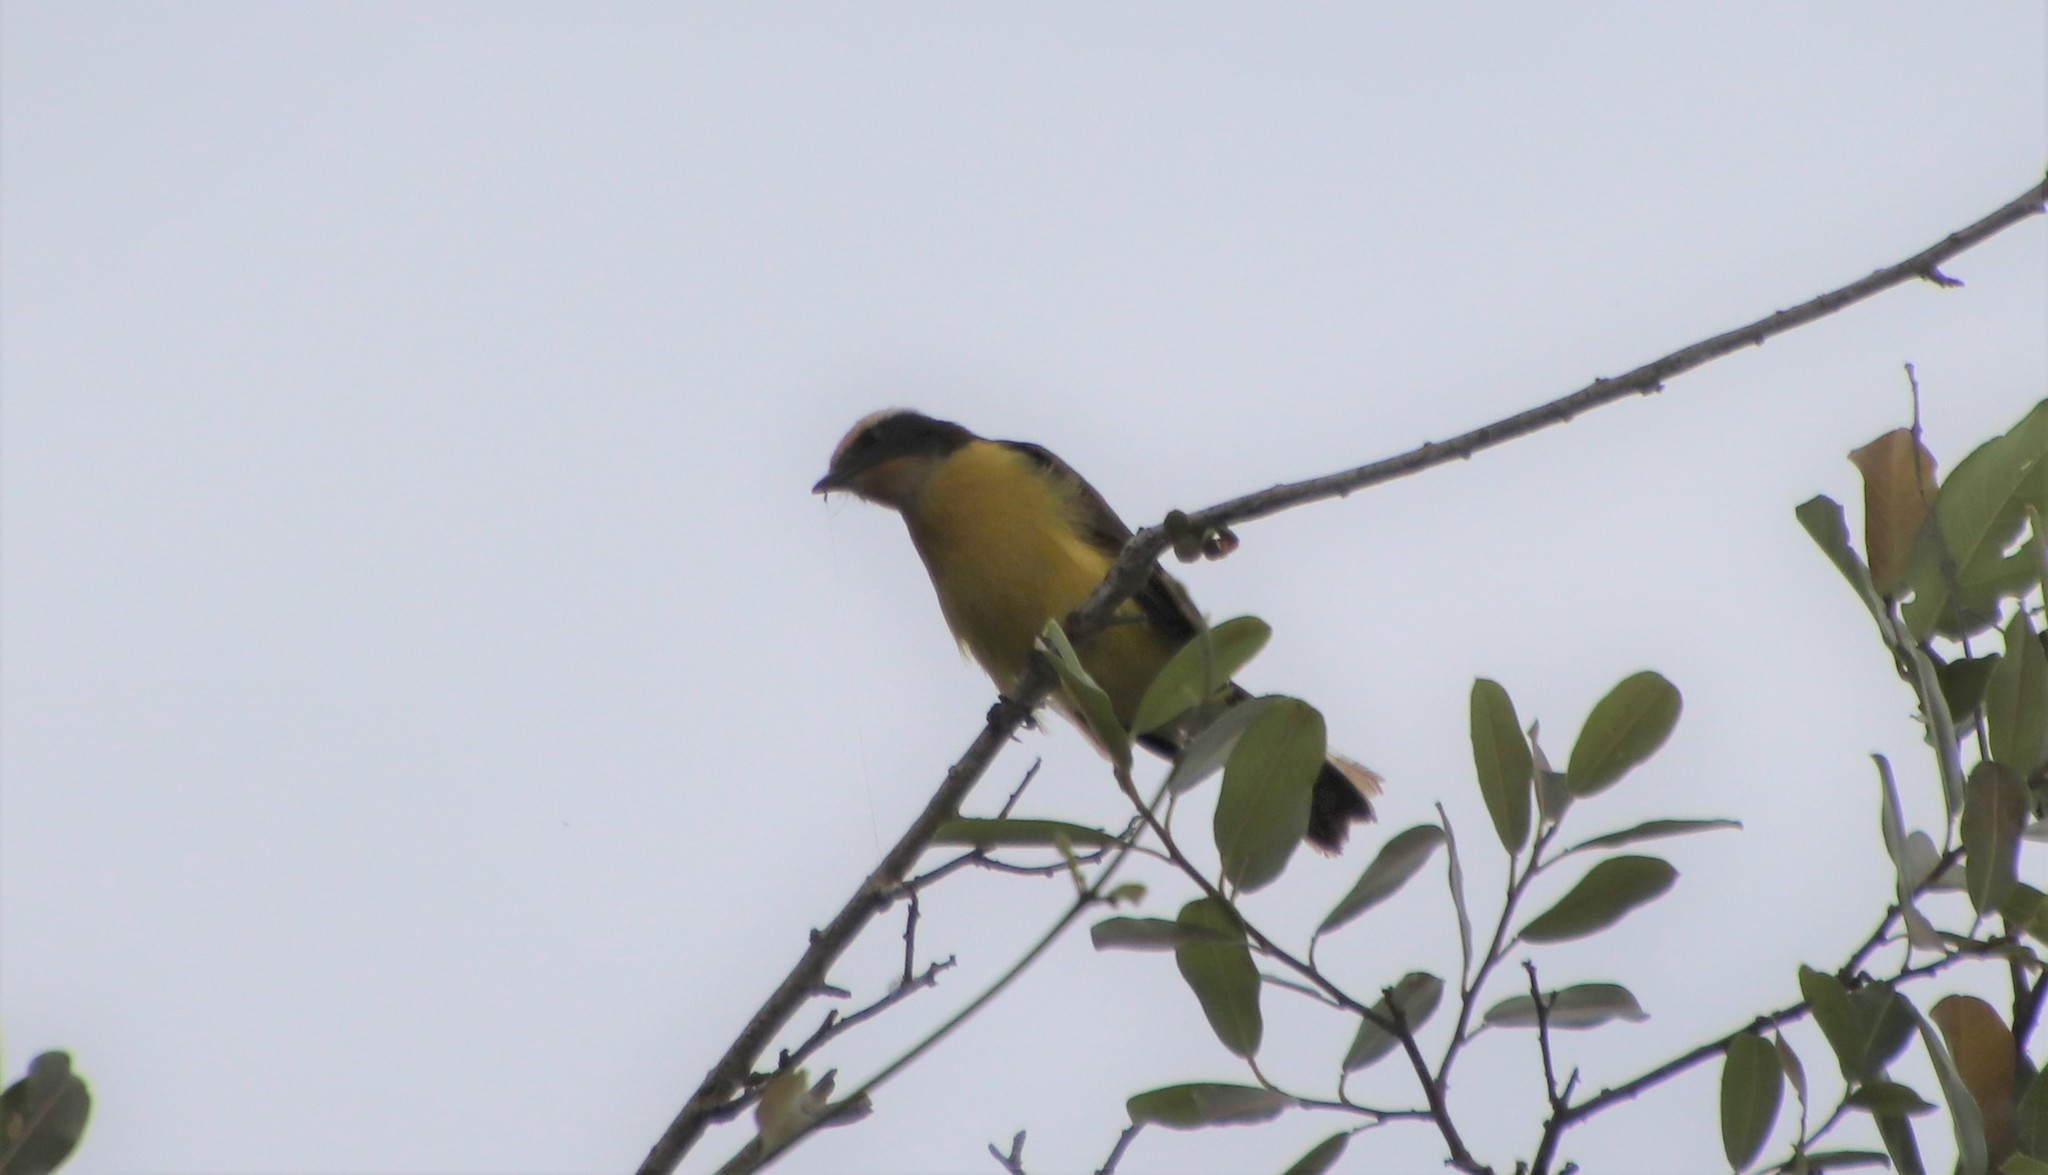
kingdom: Animalia
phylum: Chordata
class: Aves
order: Passeriformes
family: Tyrannidae
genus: Myiozetetes
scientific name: Myiozetetes cayanensis
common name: Rusty-margined flycatcher
